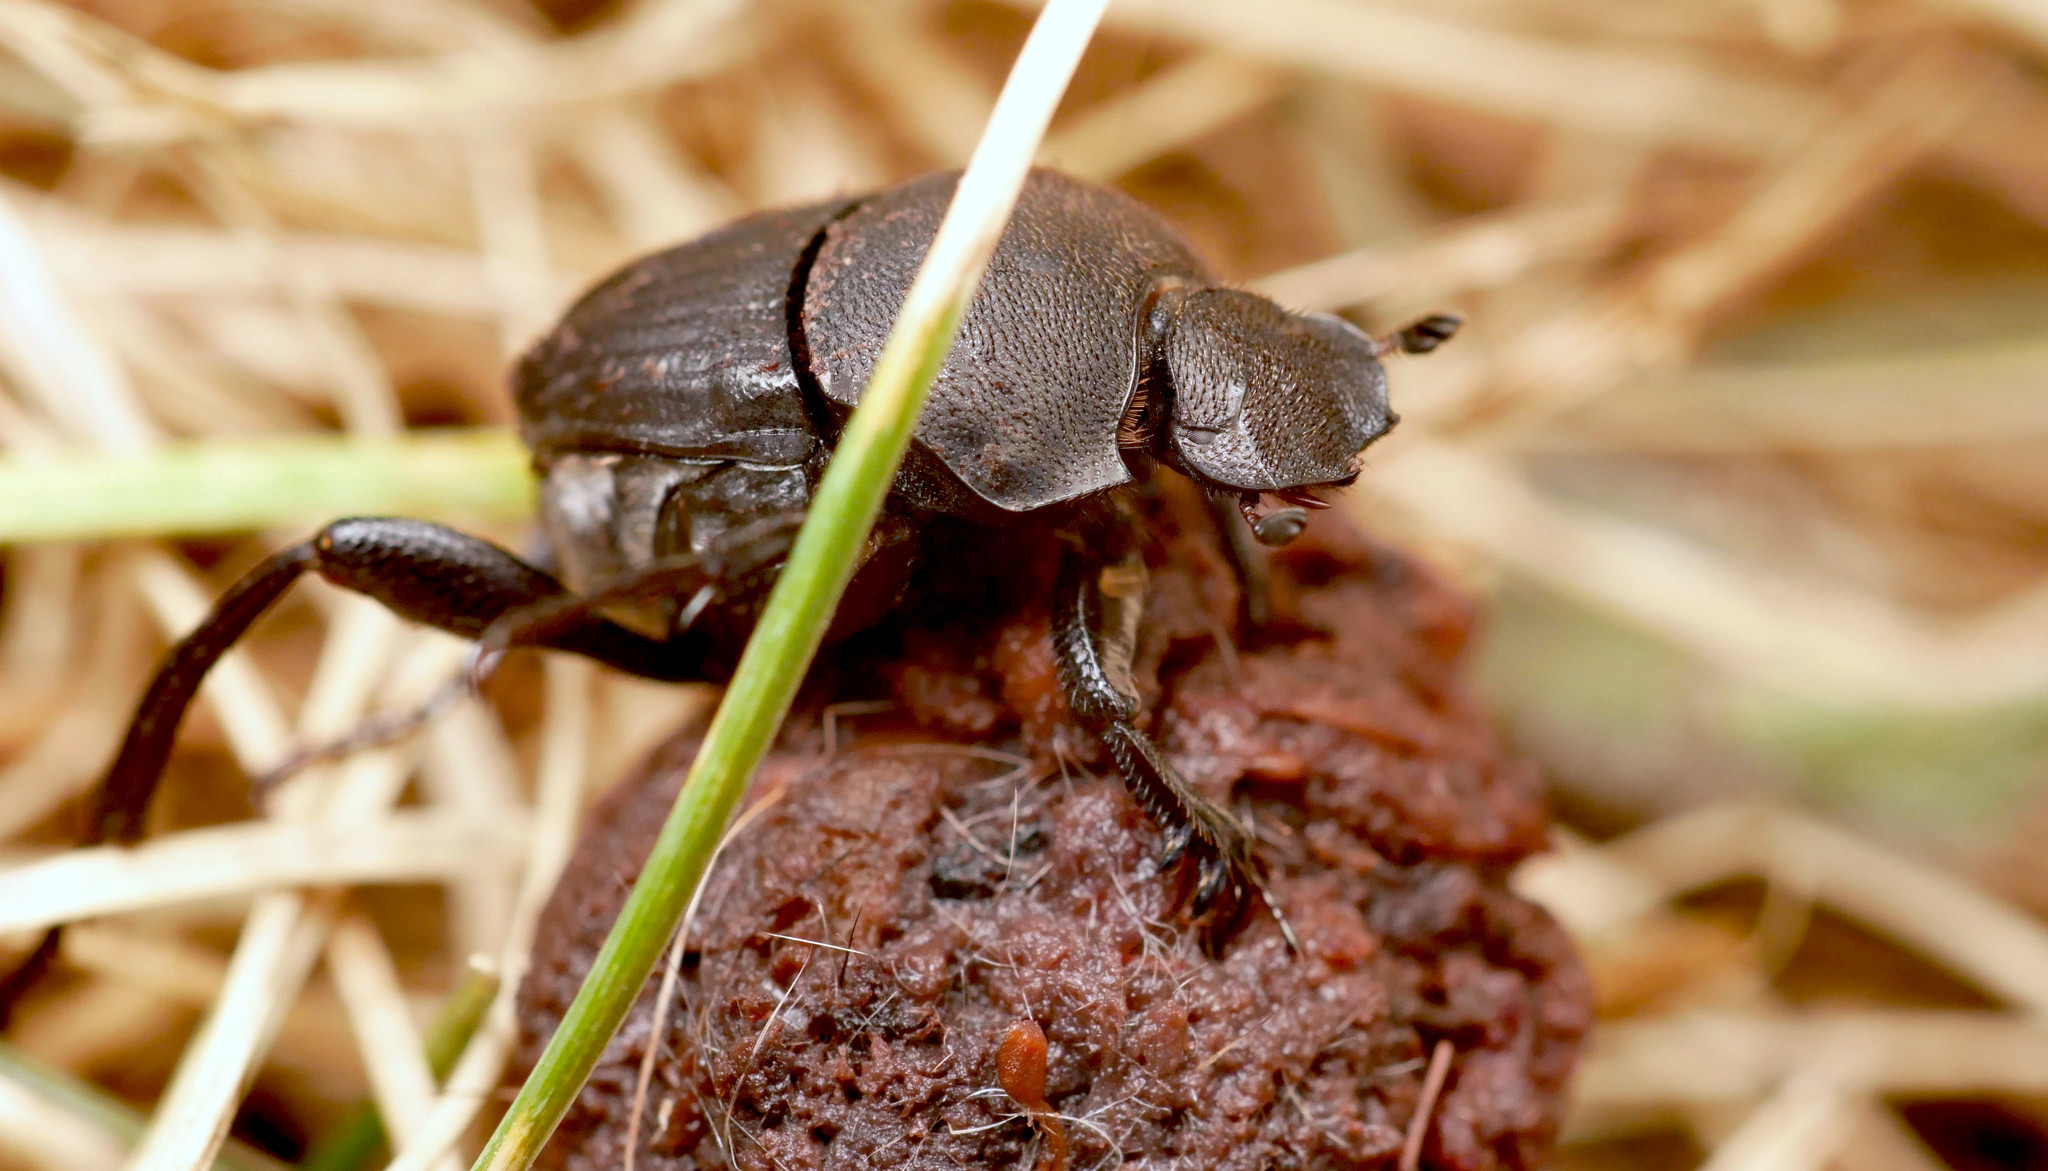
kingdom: Animalia
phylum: Arthropoda
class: Insecta
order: Coleoptera
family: Scarabaeidae
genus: Sisyphus
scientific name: Sisyphus schaefferi
